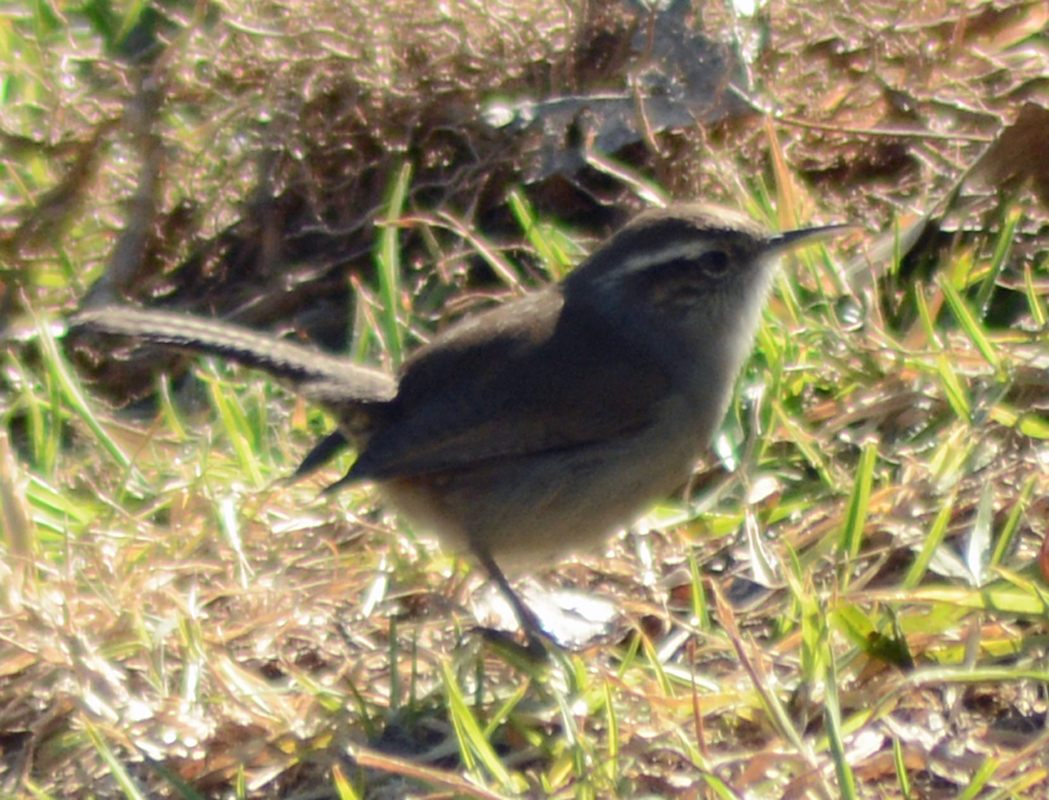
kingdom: Animalia
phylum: Chordata
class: Aves
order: Passeriformes
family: Troglodytidae
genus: Thryomanes
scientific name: Thryomanes bewickii
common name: Bewick's wren
